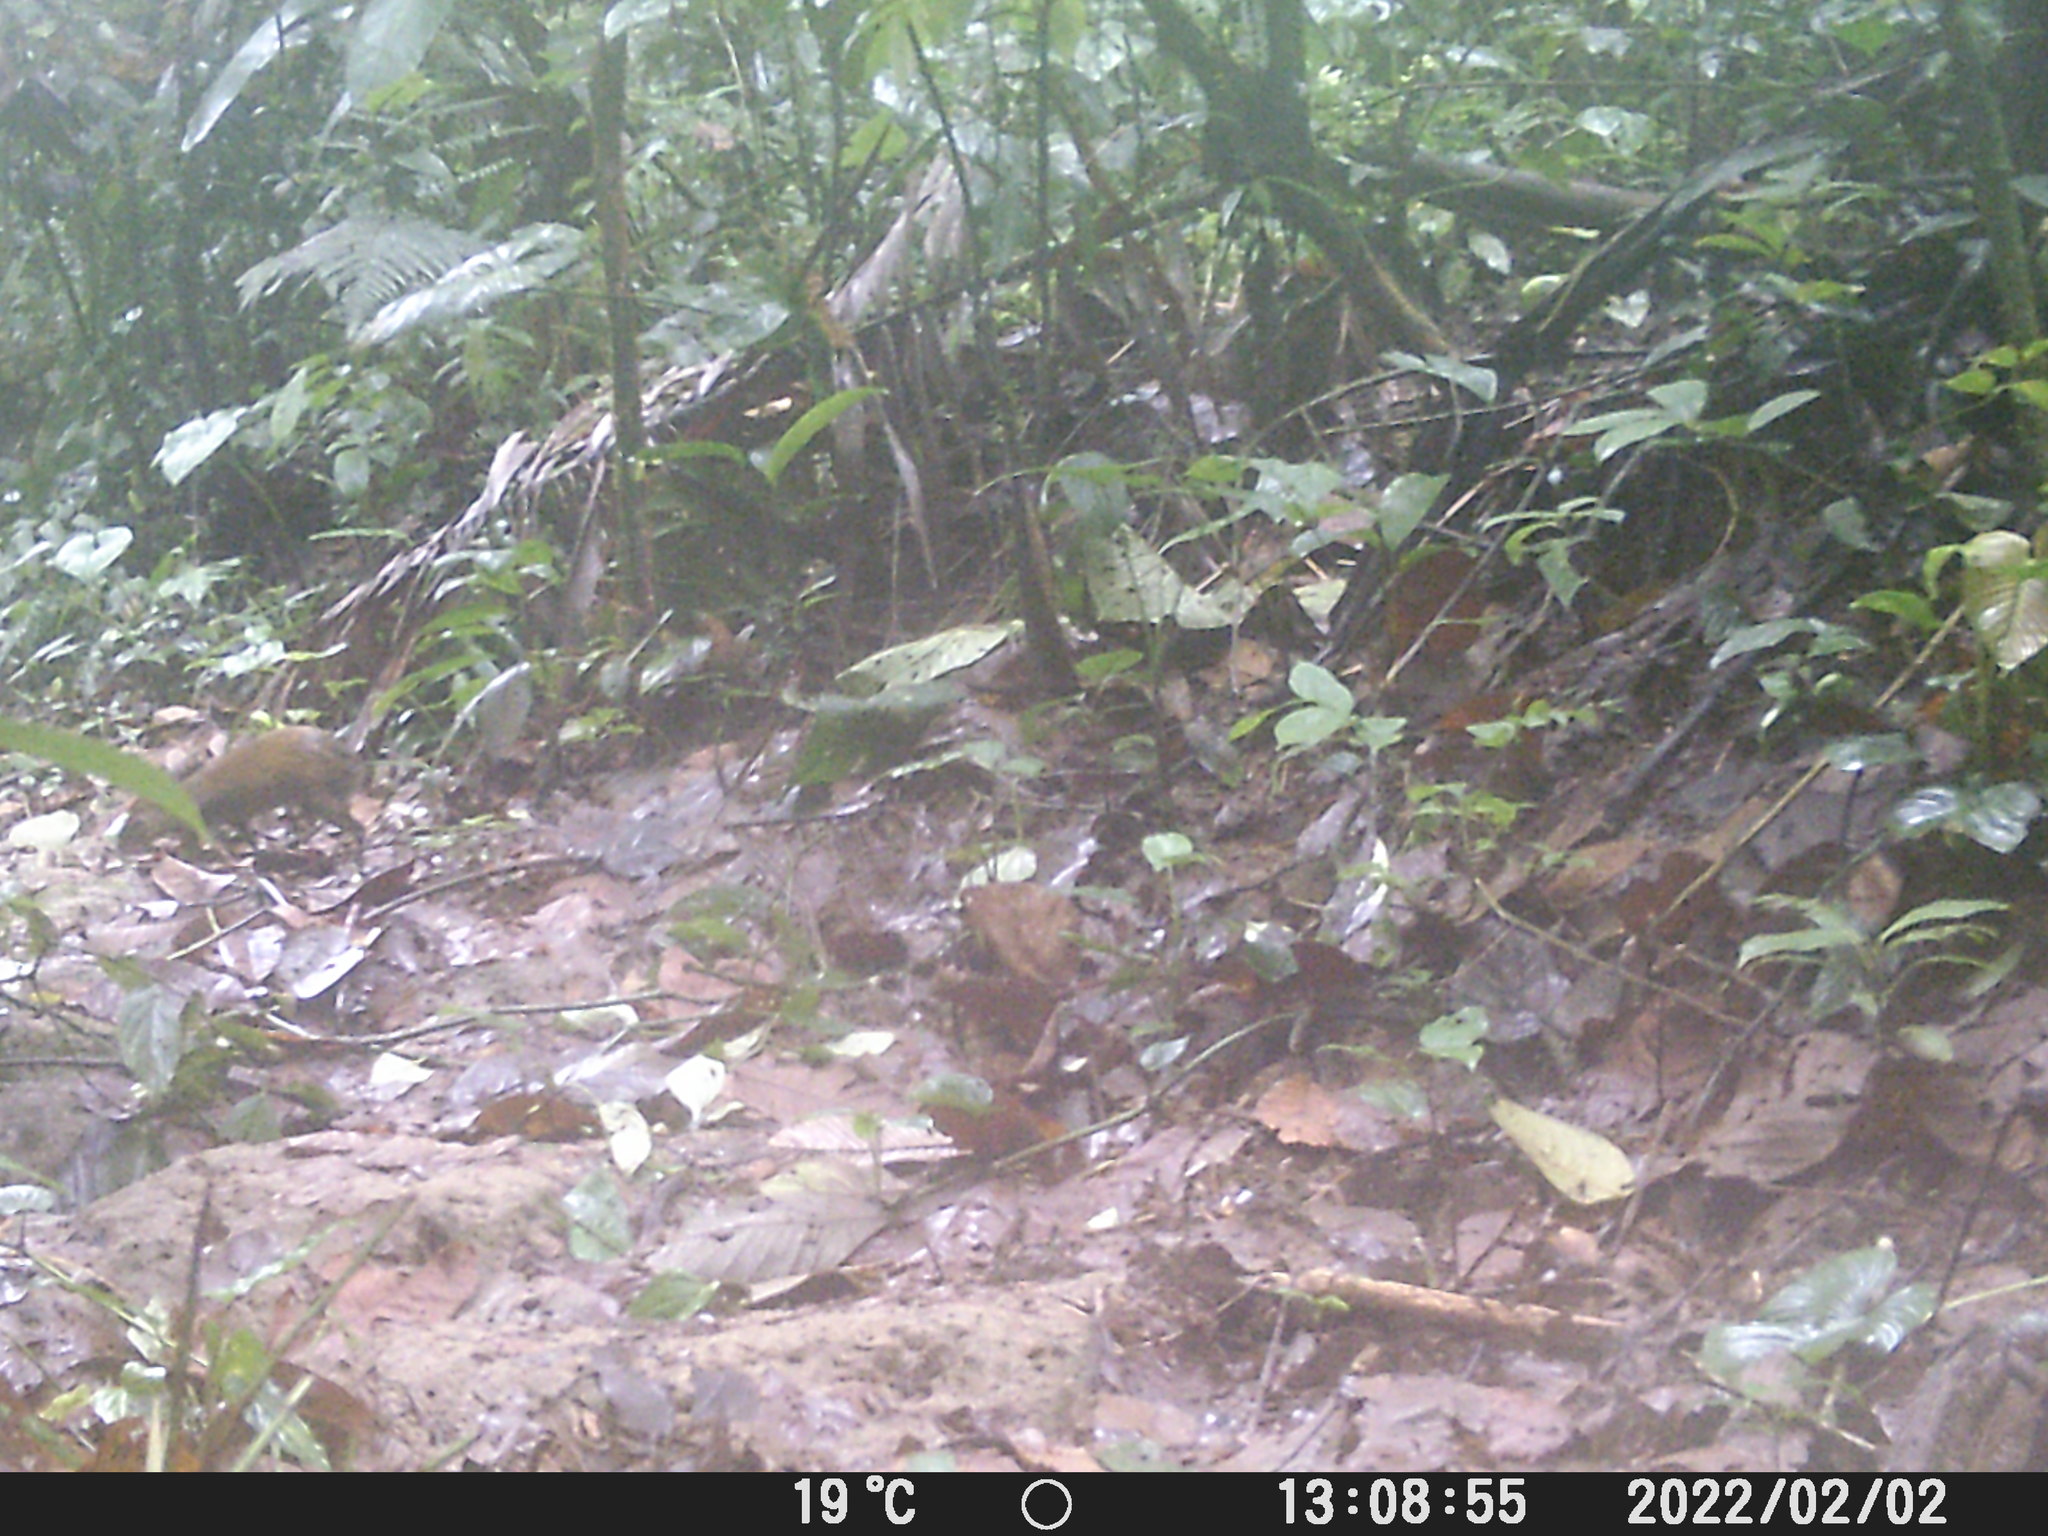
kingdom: Animalia
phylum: Chordata
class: Mammalia
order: Rodentia
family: Dasyproctidae
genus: Dasyprocta
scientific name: Dasyprocta punctata
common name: Central american agouti
